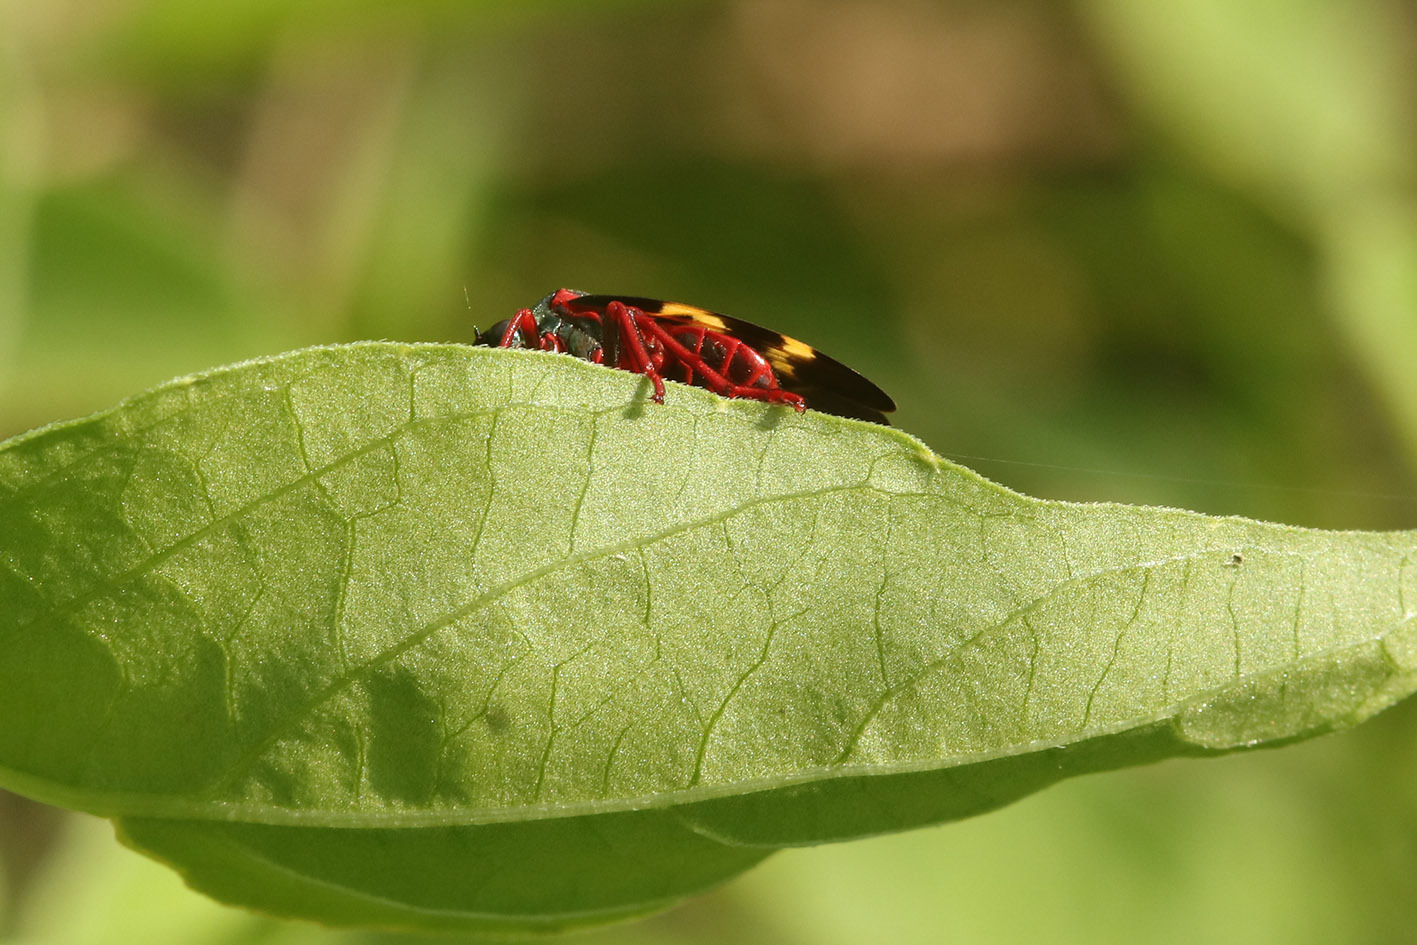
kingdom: Animalia
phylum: Arthropoda
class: Insecta
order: Hemiptera
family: Cercopidae
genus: Deois
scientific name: Deois flexuosa
